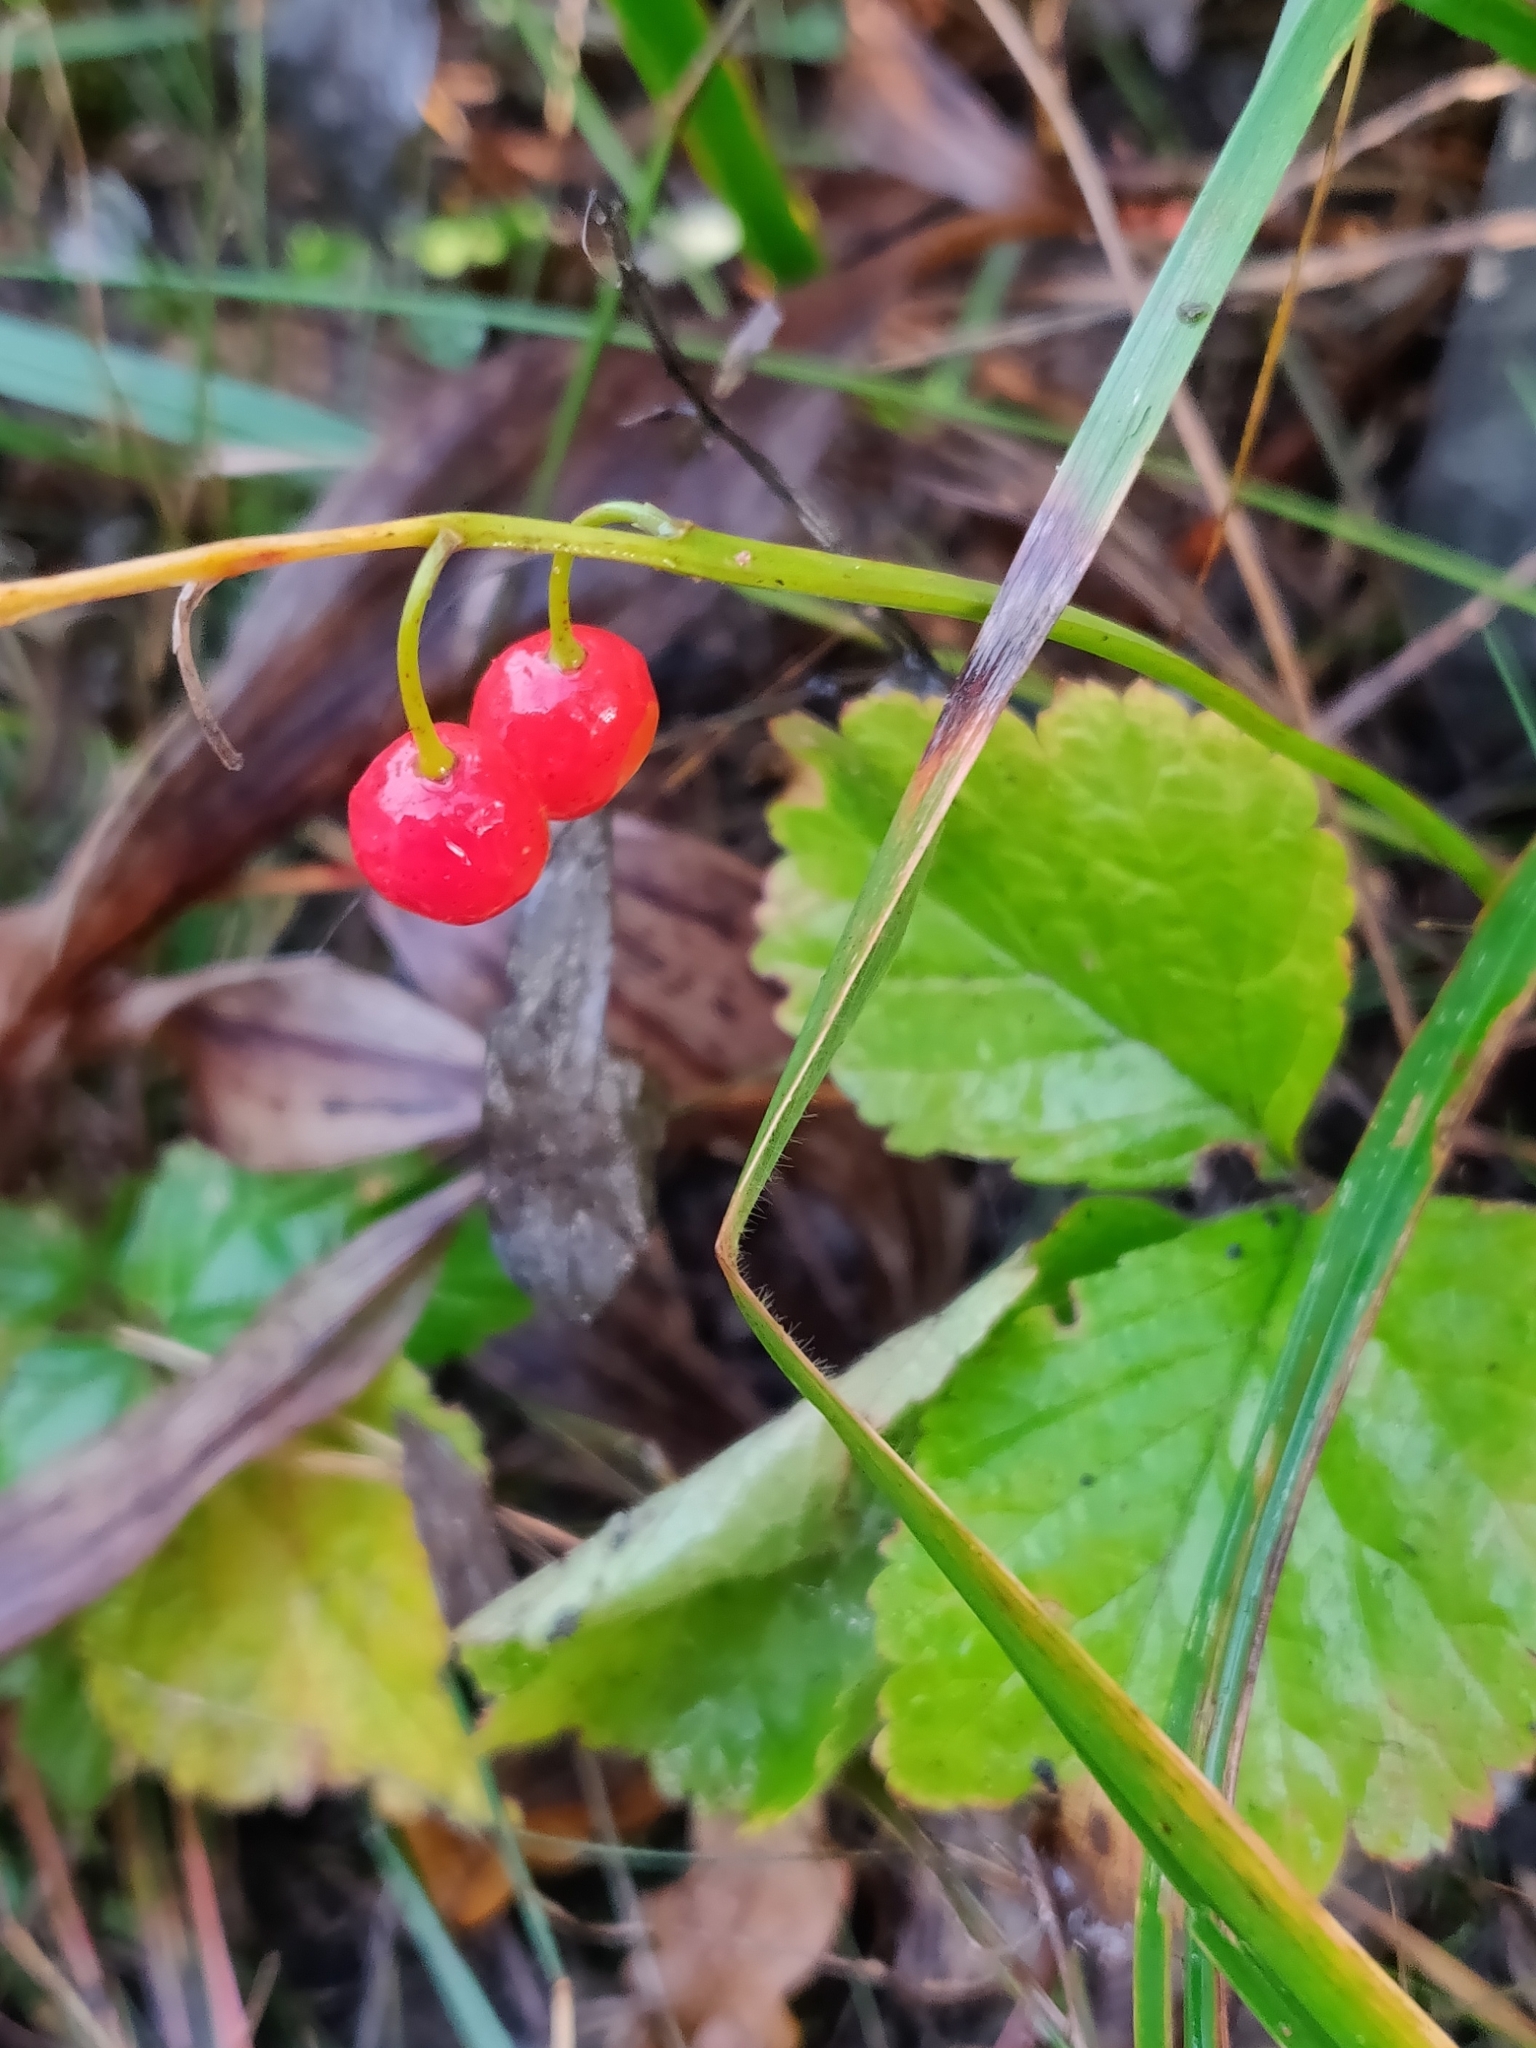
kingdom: Plantae
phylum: Tracheophyta
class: Liliopsida
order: Asparagales
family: Asparagaceae
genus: Convallaria
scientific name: Convallaria majalis
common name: Lily-of-the-valley
